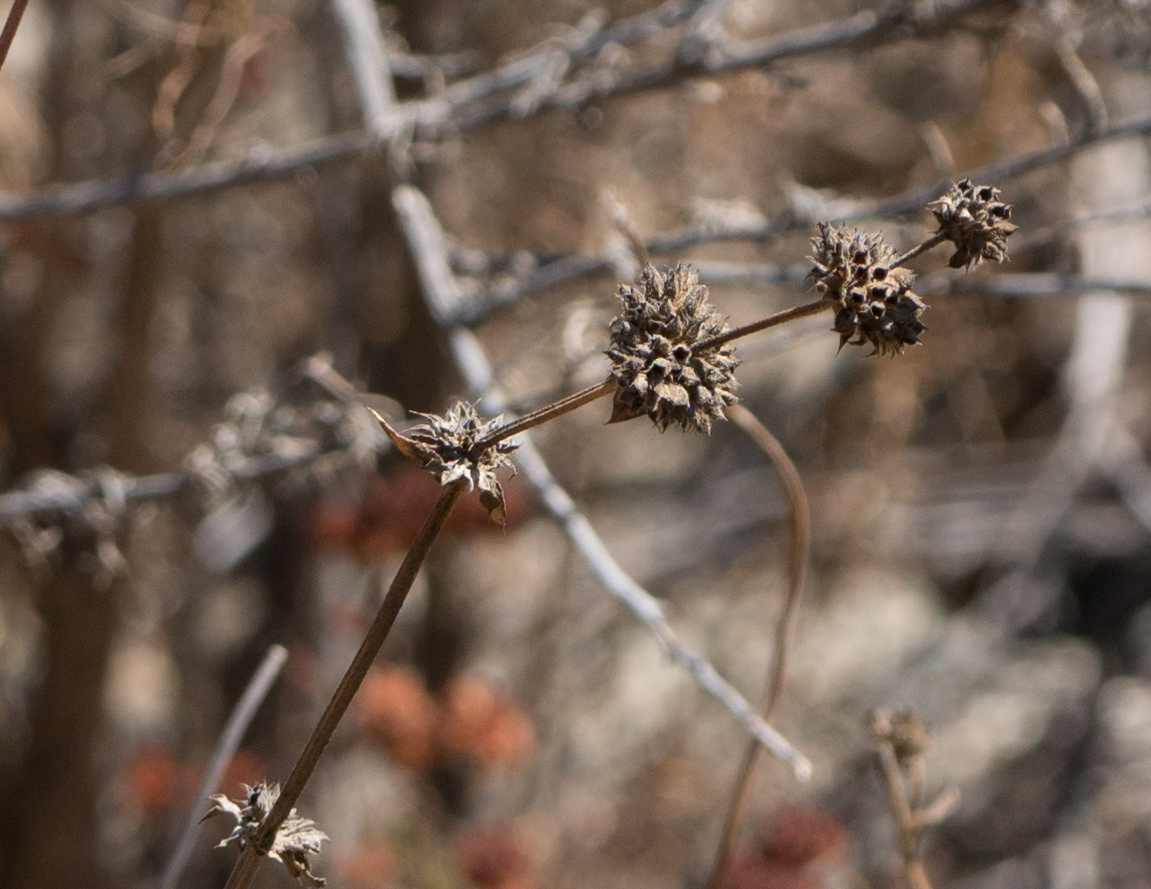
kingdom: Plantae
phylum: Tracheophyta
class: Magnoliopsida
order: Lamiales
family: Lamiaceae
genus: Salvia
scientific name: Salvia mellifera
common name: Black sage
